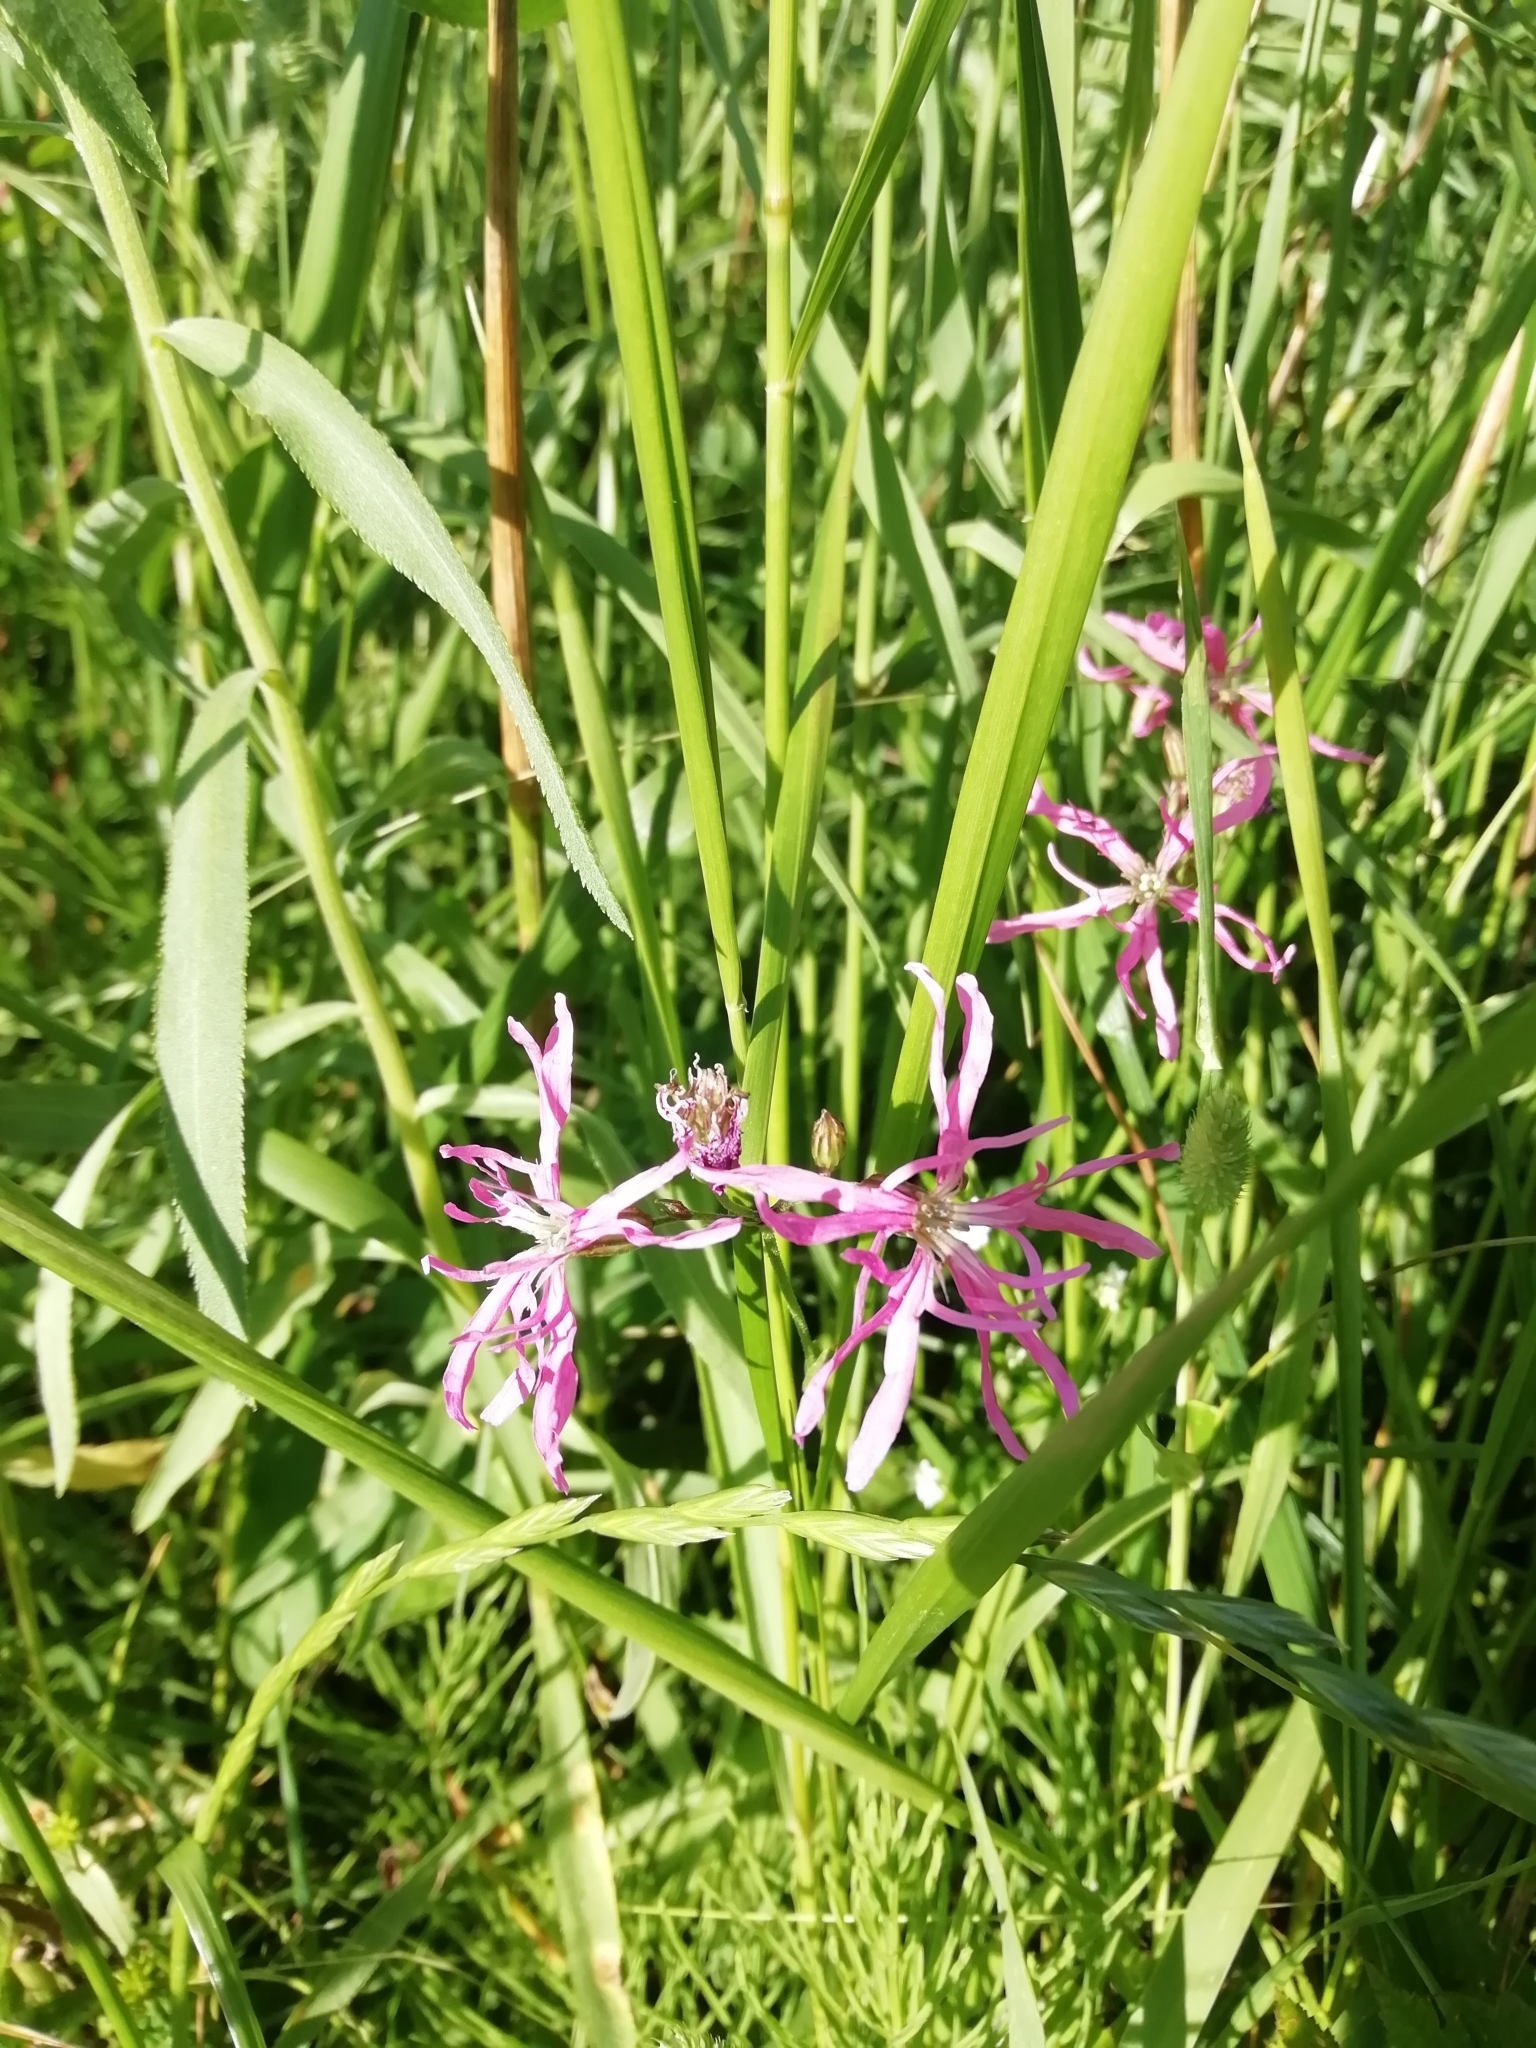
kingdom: Plantae
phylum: Tracheophyta
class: Magnoliopsida
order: Caryophyllales
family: Caryophyllaceae
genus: Silene
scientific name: Silene flos-cuculi
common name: Ragged-robin
